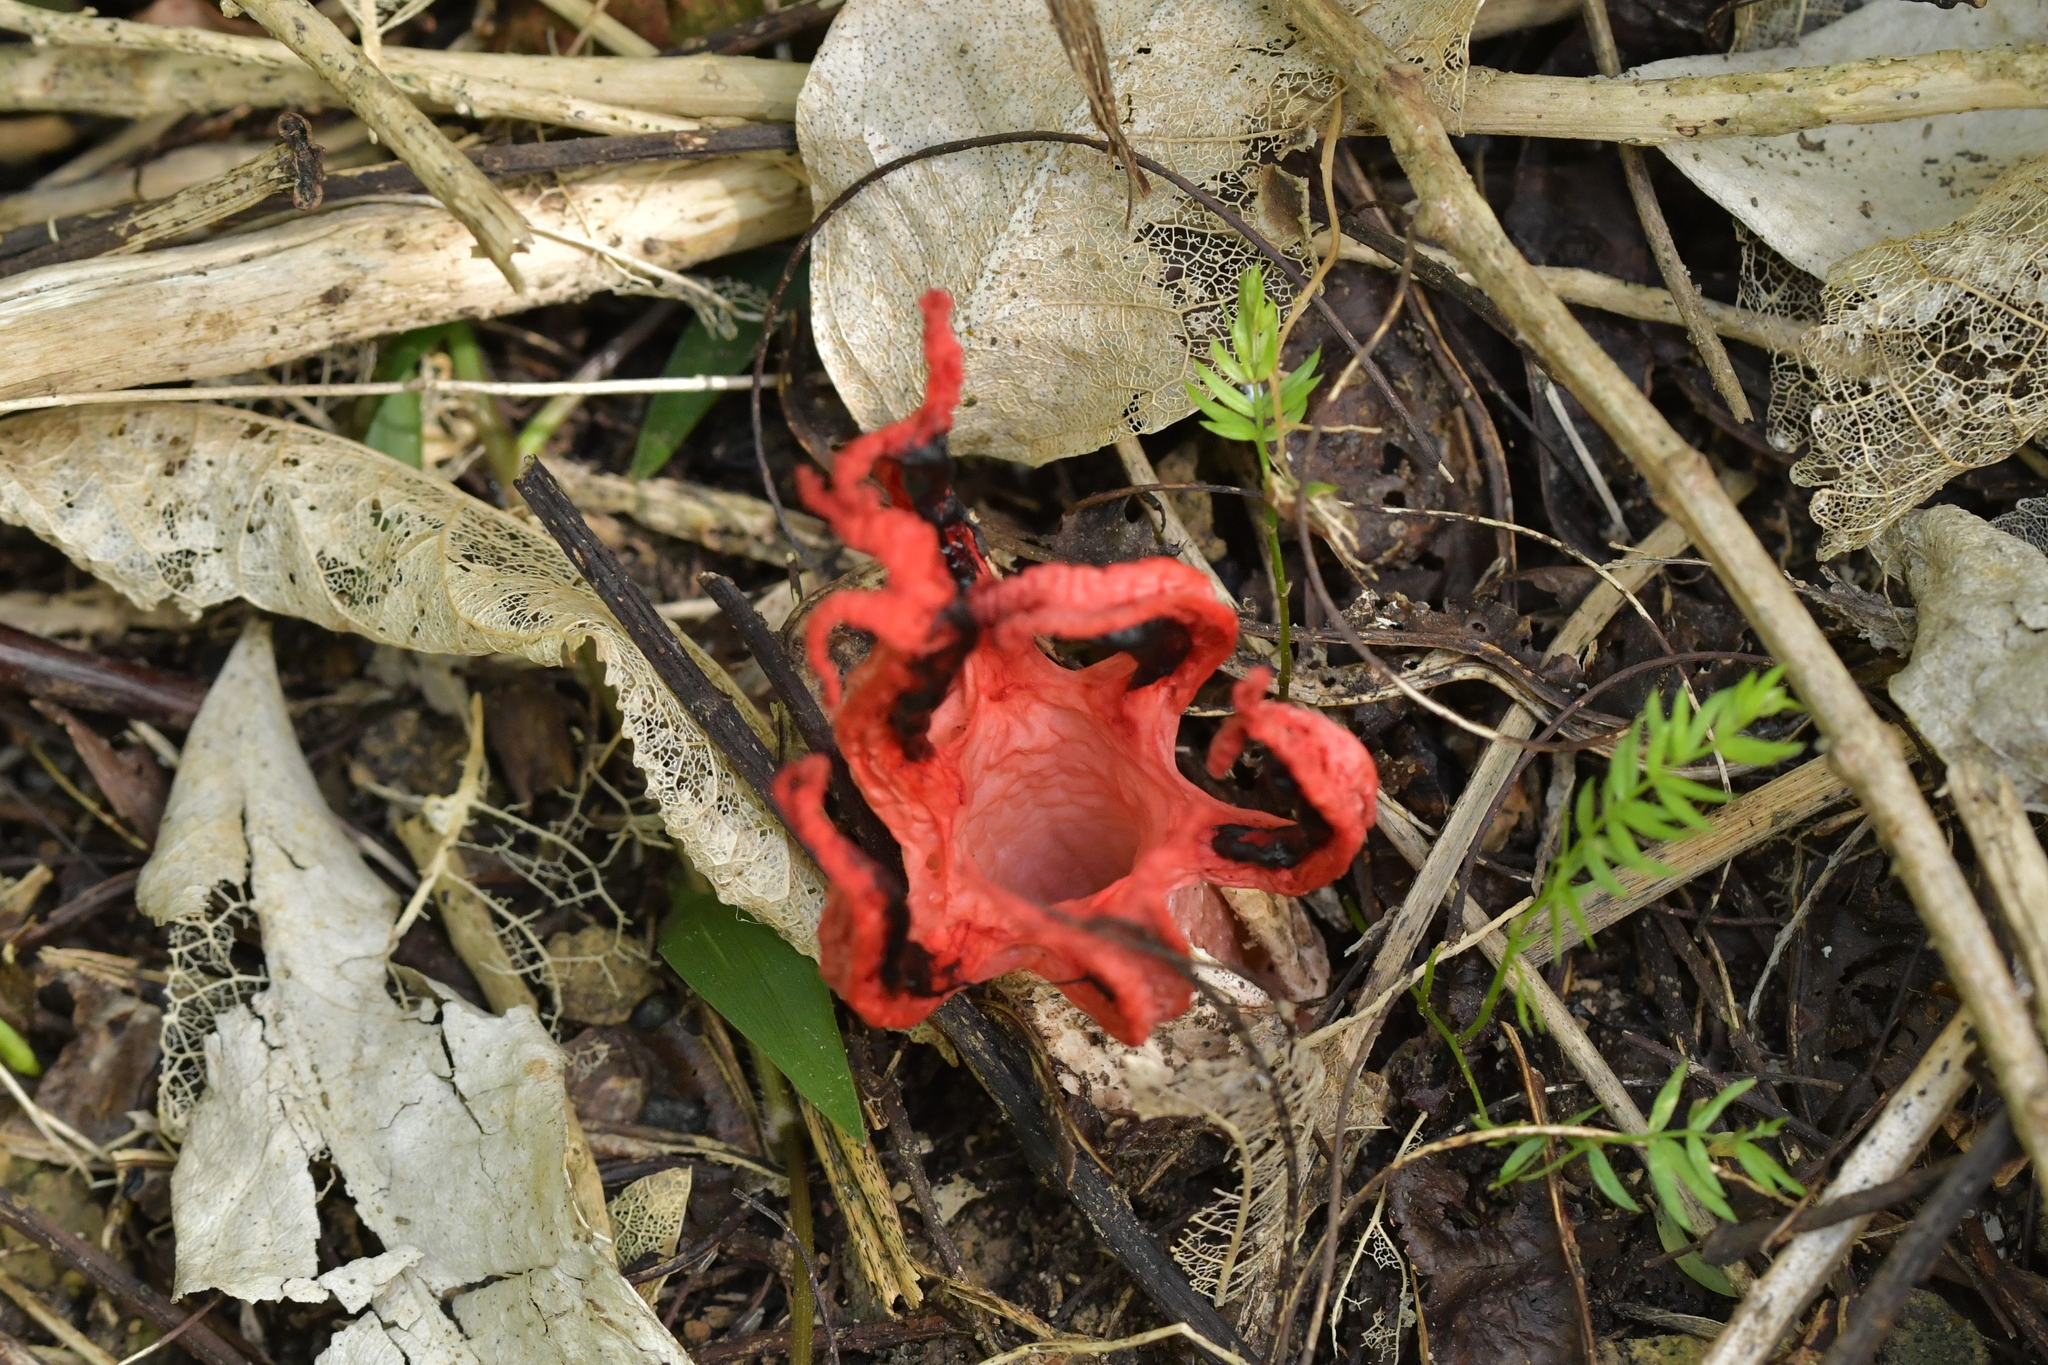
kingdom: Fungi
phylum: Basidiomycota
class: Agaricomycetes
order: Phallales
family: Phallaceae
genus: Clathrus
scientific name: Clathrus archeri
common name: Devil's fingers
